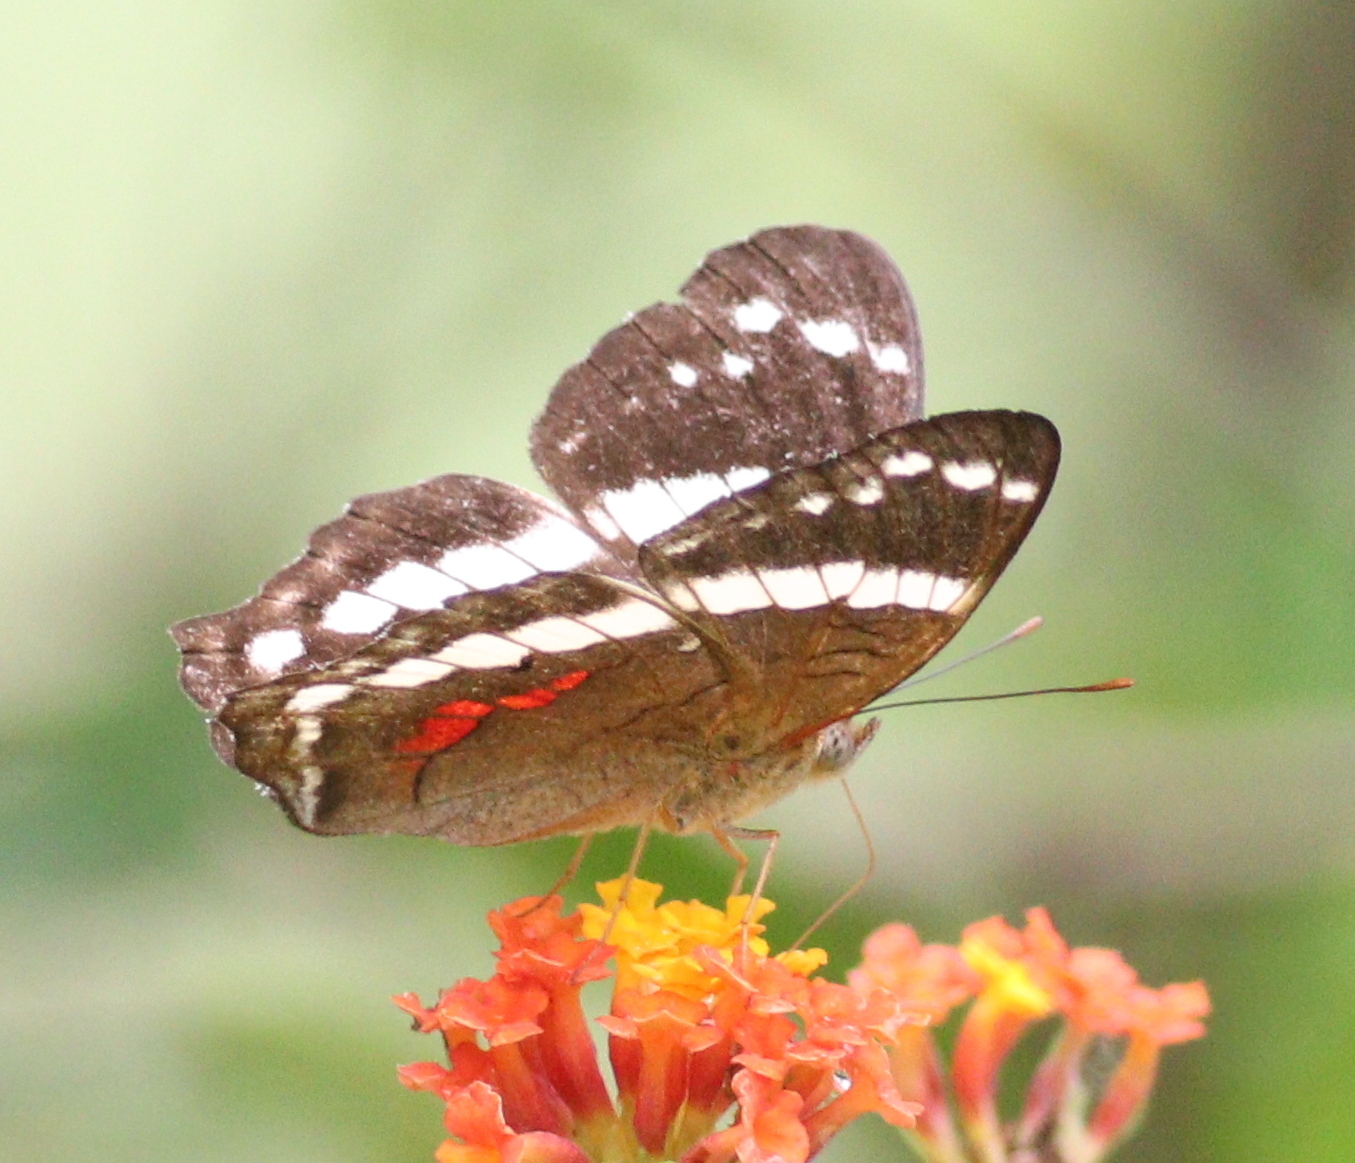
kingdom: Animalia
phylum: Arthropoda
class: Insecta
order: Lepidoptera
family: Nymphalidae
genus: Anartia
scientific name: Anartia fatima
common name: Banded peacock
